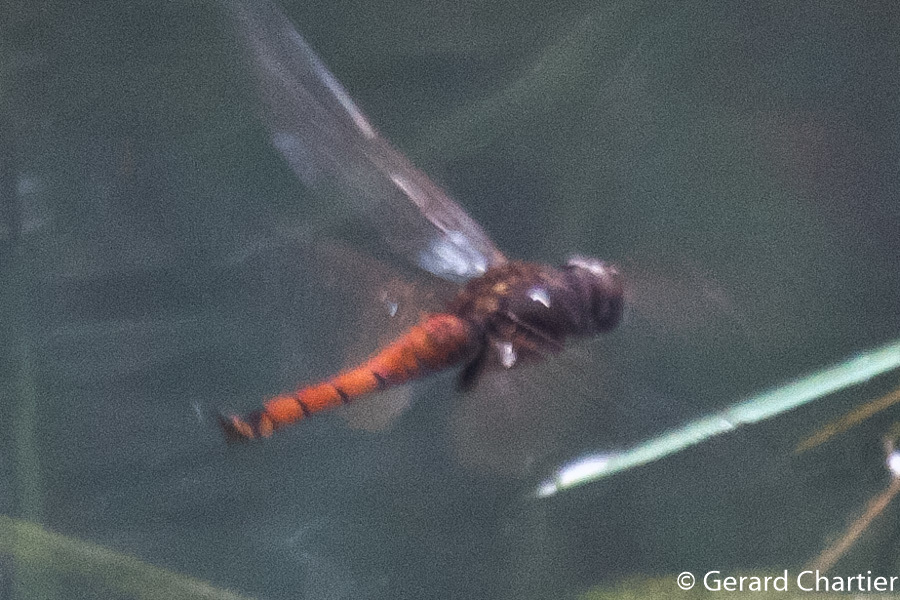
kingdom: Animalia
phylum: Arthropoda
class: Insecta
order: Odonata
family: Libellulidae
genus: Tramea
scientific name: Tramea transmarina
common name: Red glider dragonfly
